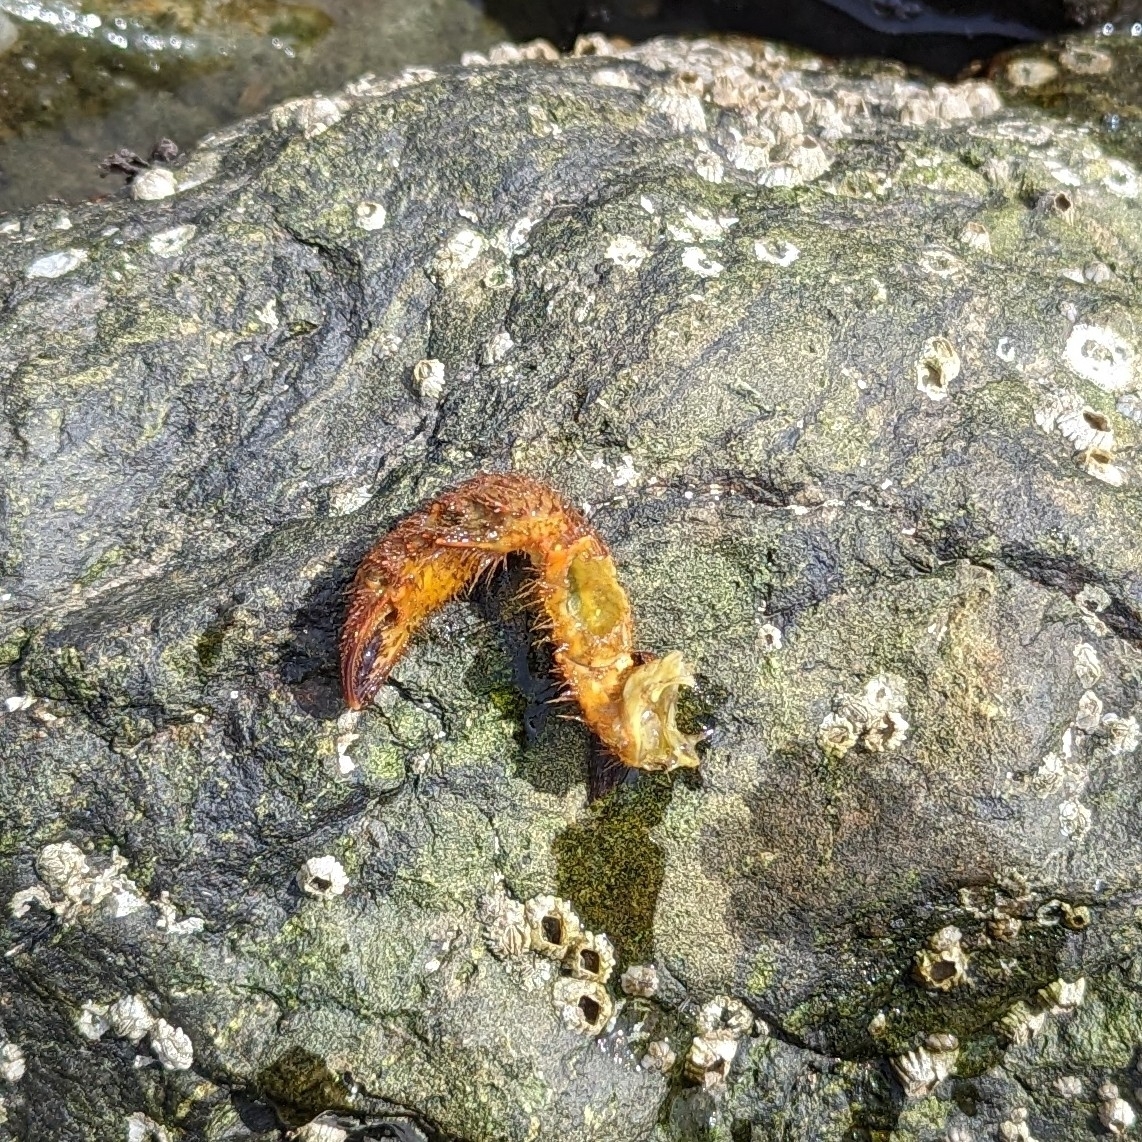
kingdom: Animalia
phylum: Arthropoda
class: Malacostraca
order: Decapoda
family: Cheiragonidae
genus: Telmessus
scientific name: Telmessus cheiragonus
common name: Helmet crab
